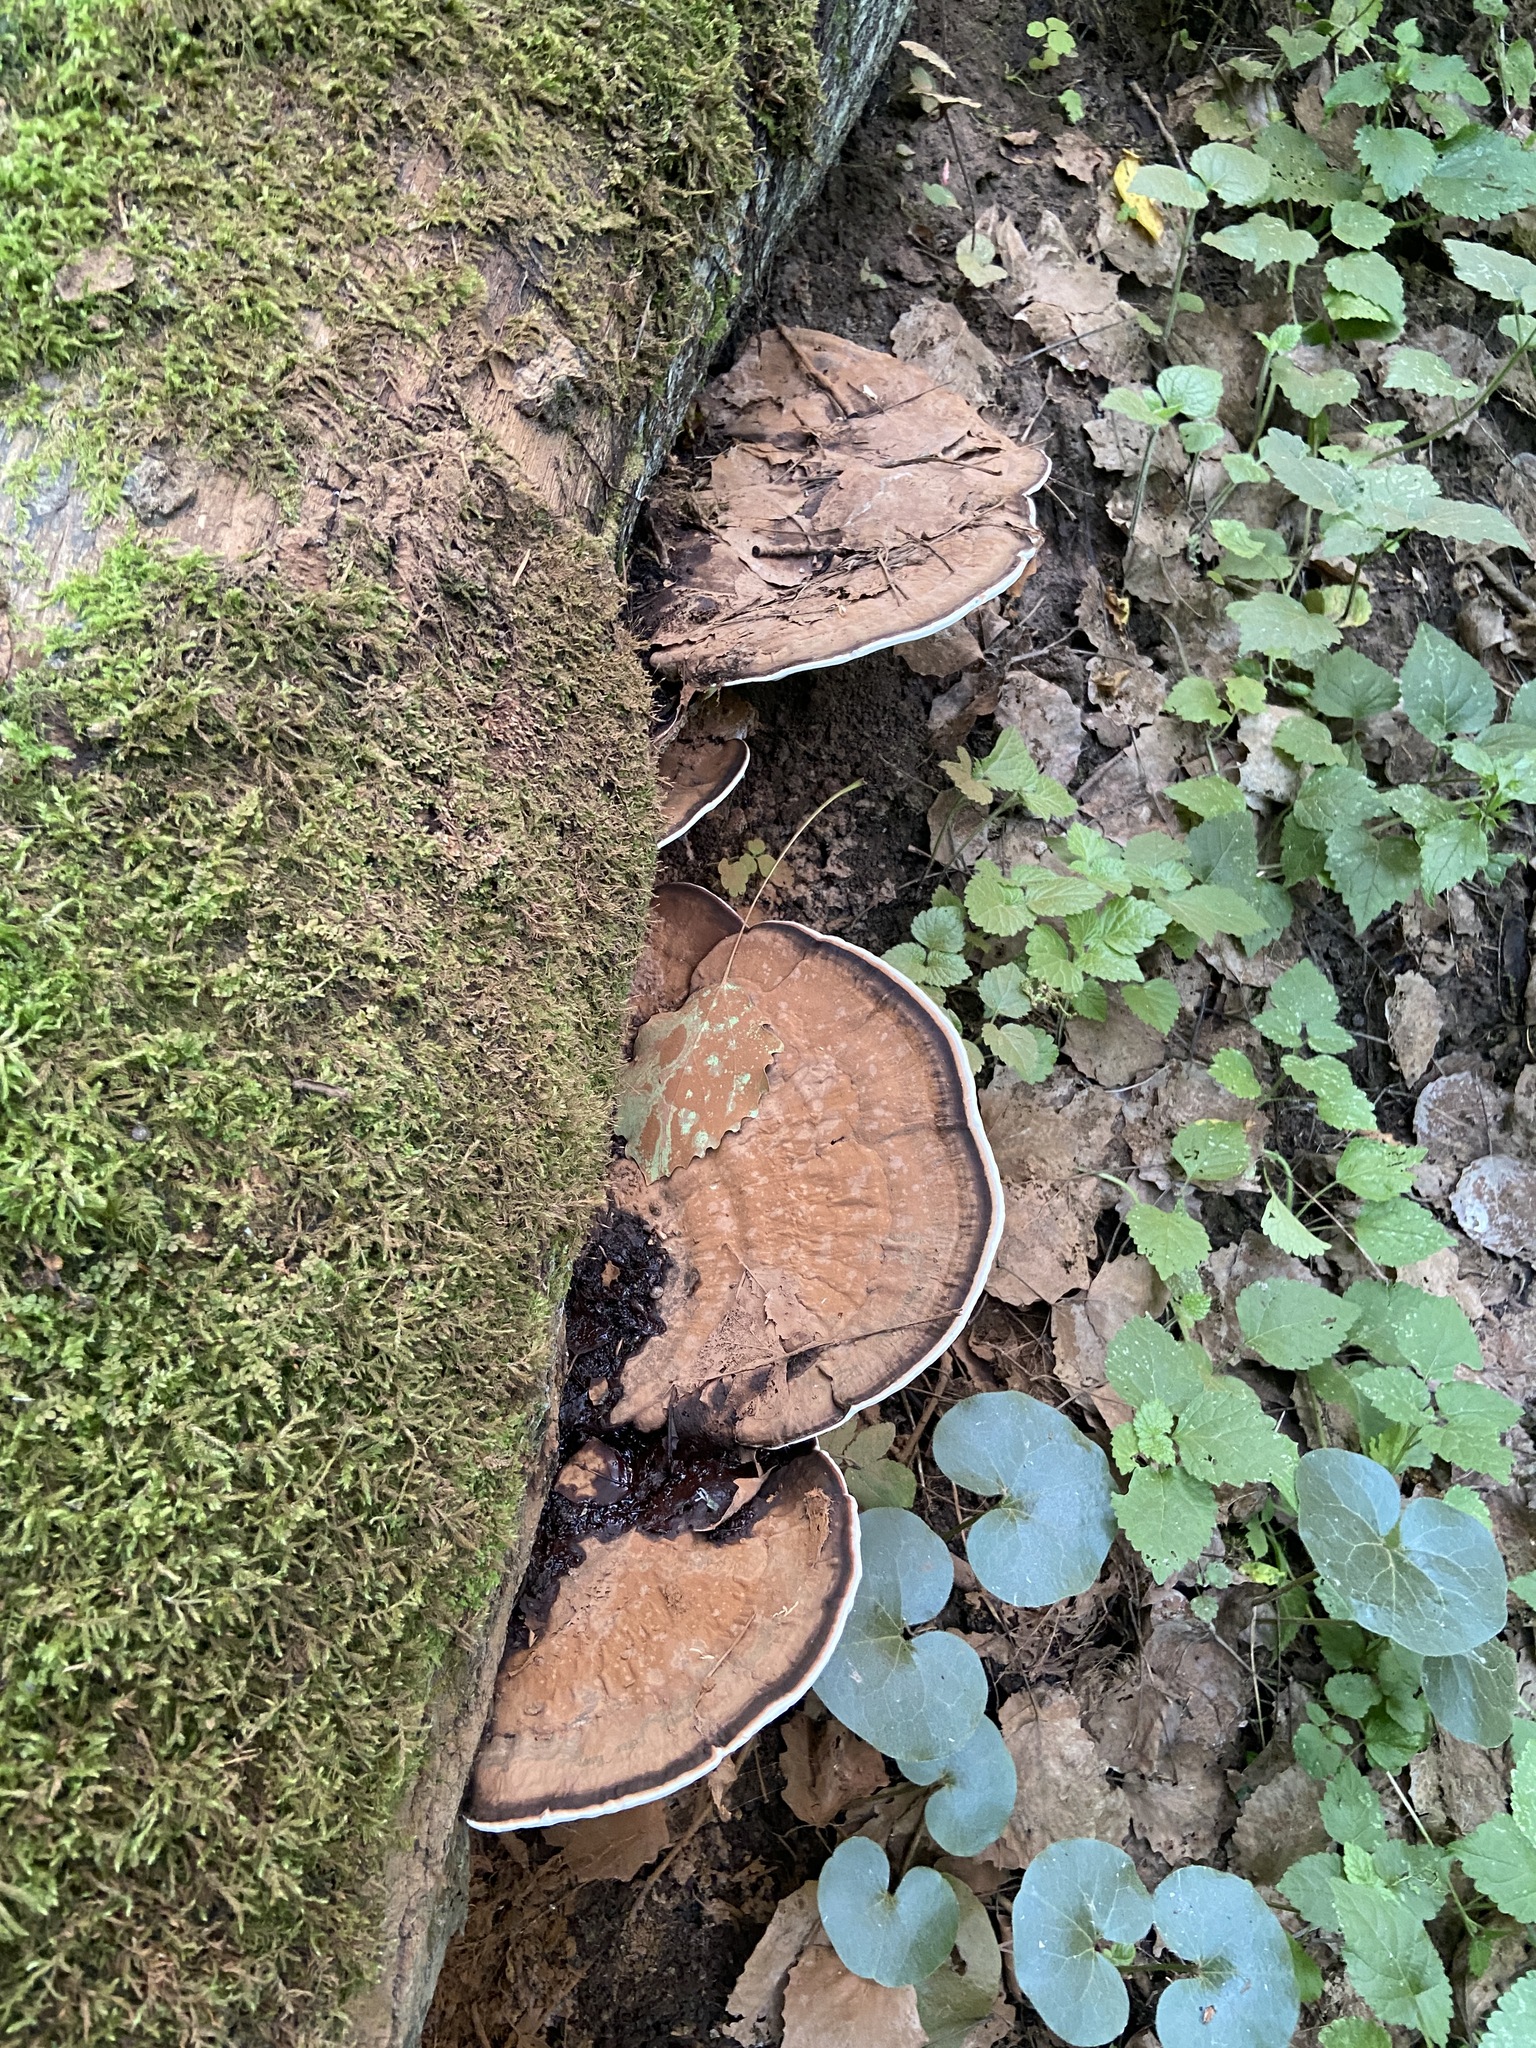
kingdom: Fungi
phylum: Basidiomycota
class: Agaricomycetes
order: Polyporales
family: Polyporaceae
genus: Ganoderma
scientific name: Ganoderma applanatum
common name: Artist's bracket
